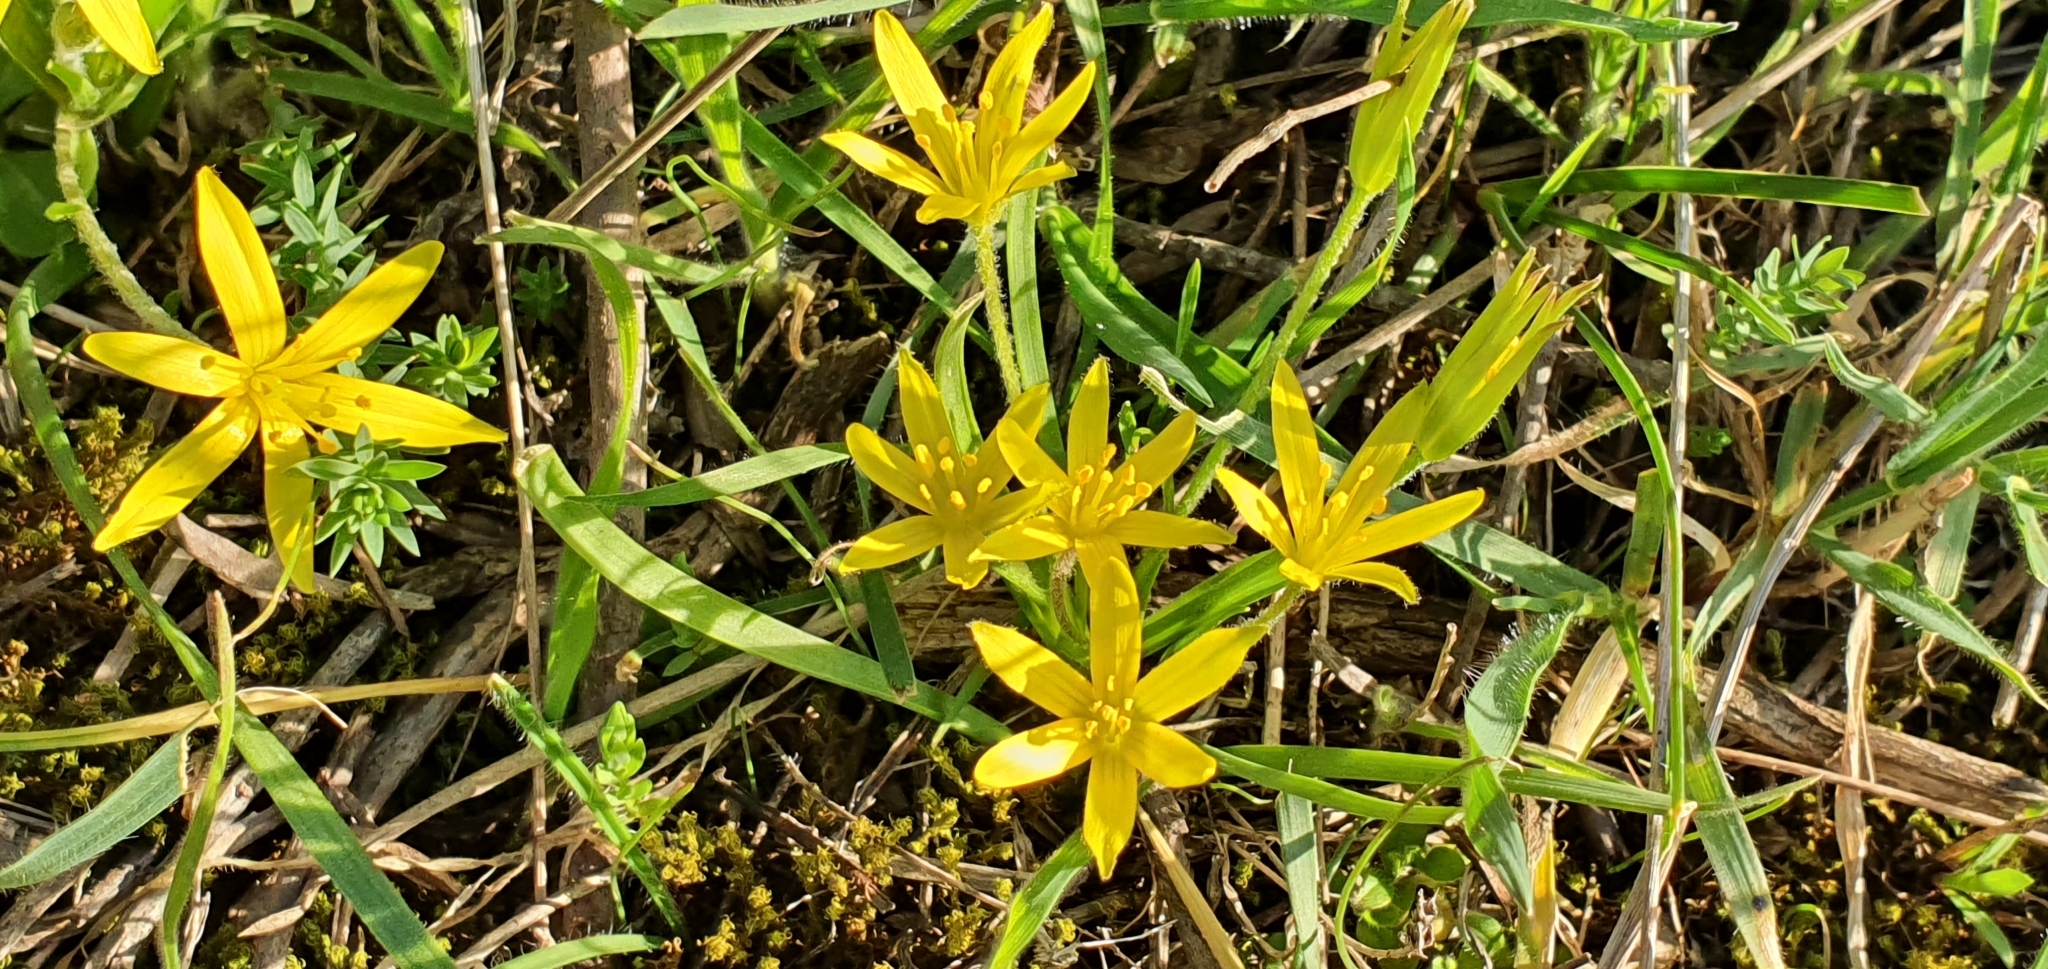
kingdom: Plantae
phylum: Tracheophyta
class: Liliopsida
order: Liliales
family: Liliaceae
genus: Gagea
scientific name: Gagea granatellii
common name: Granatelli’s gagea
